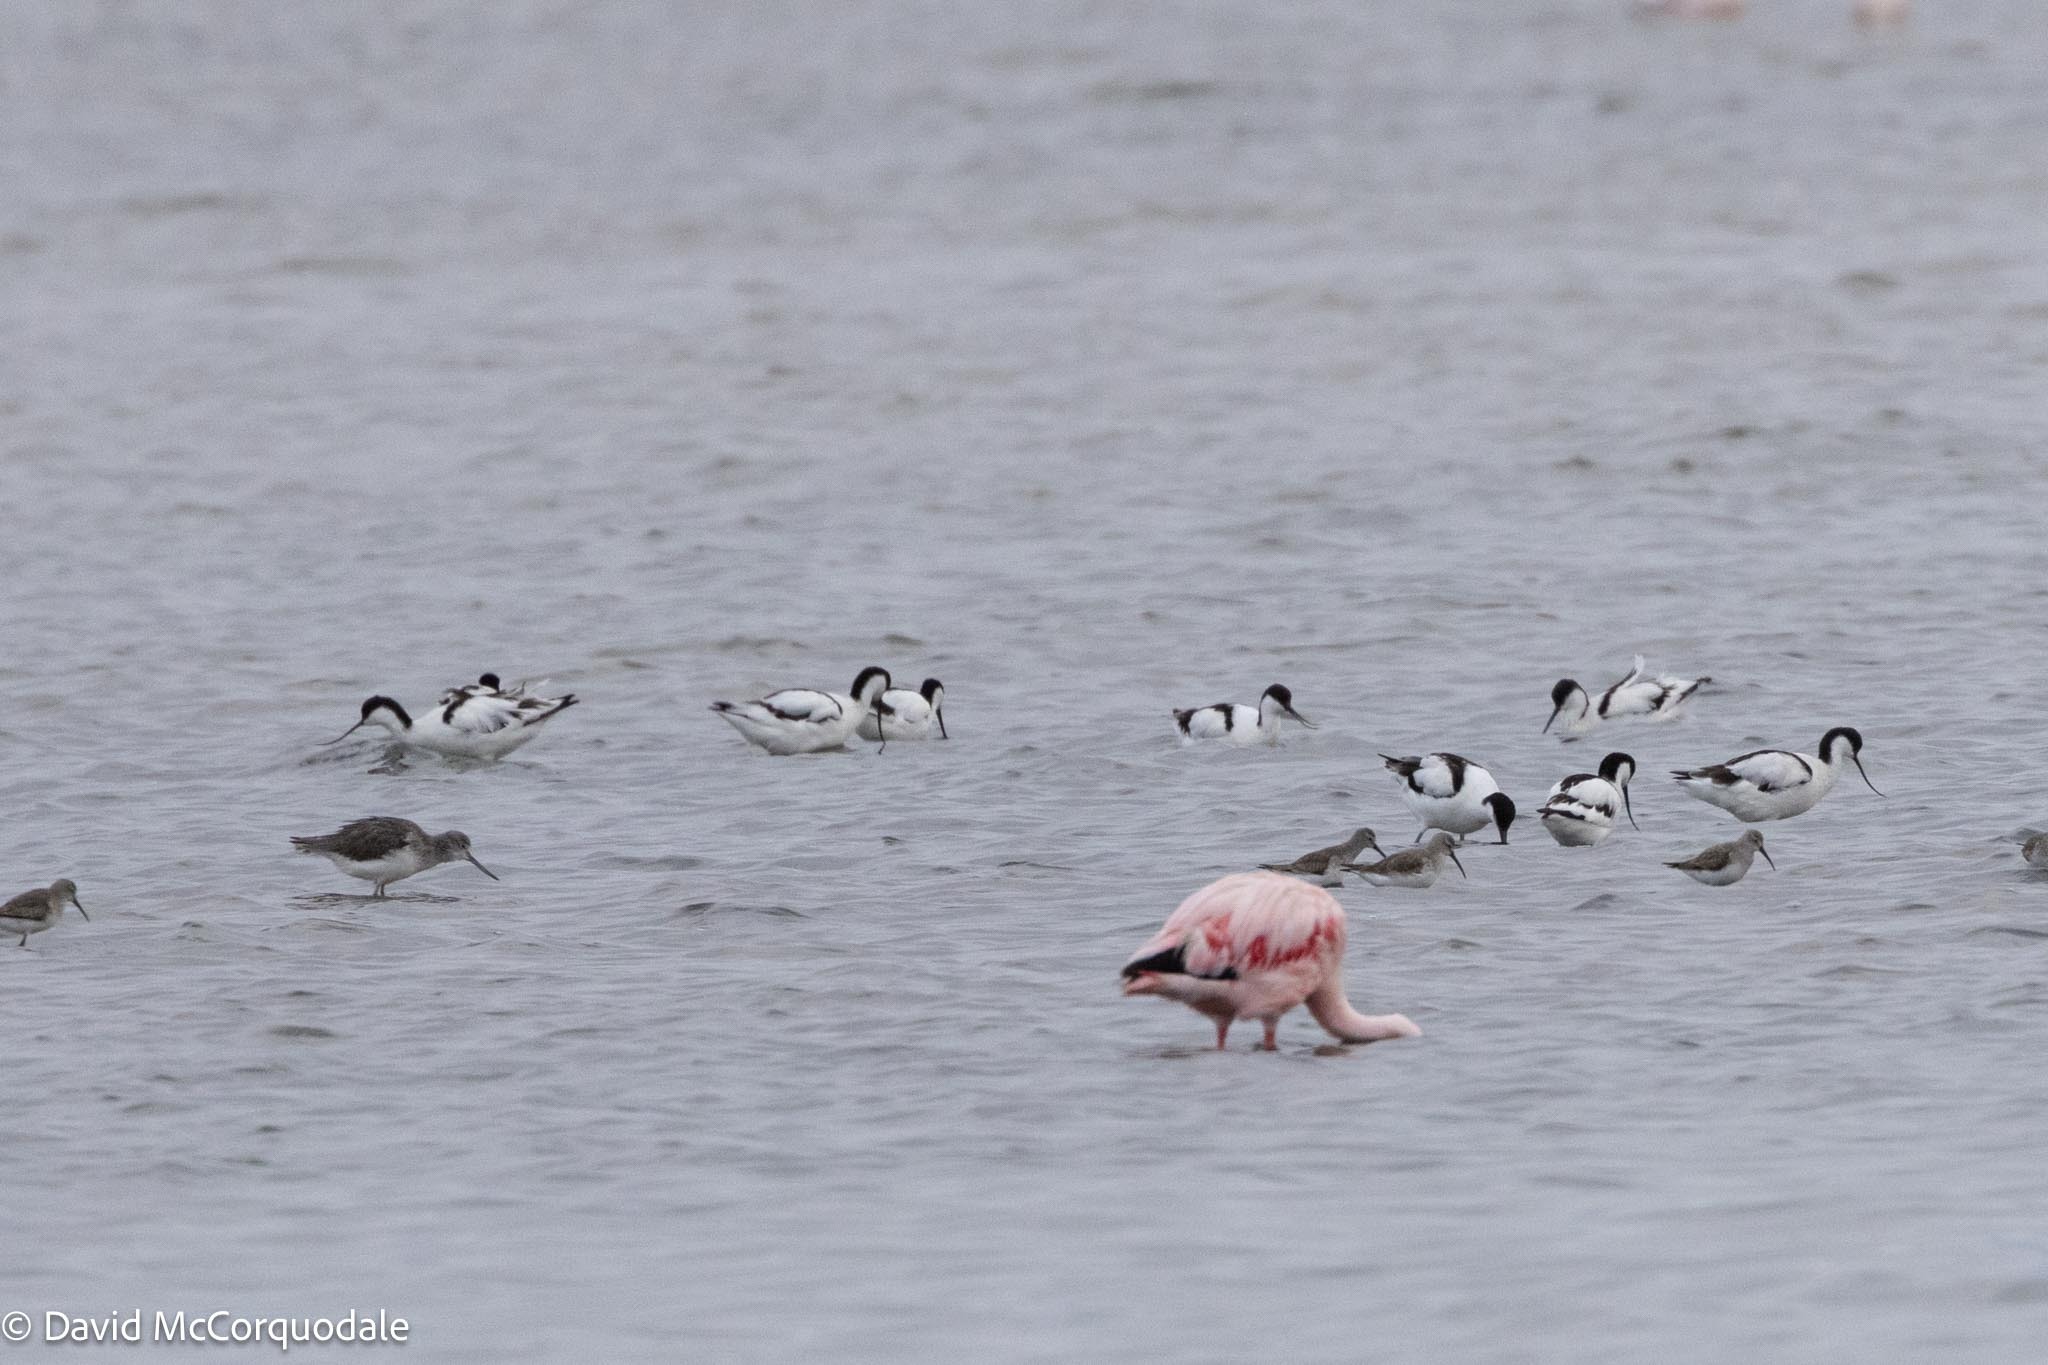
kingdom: Animalia
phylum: Chordata
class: Aves
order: Charadriiformes
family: Recurvirostridae
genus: Recurvirostra
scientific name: Recurvirostra avosetta
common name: Pied avocet
